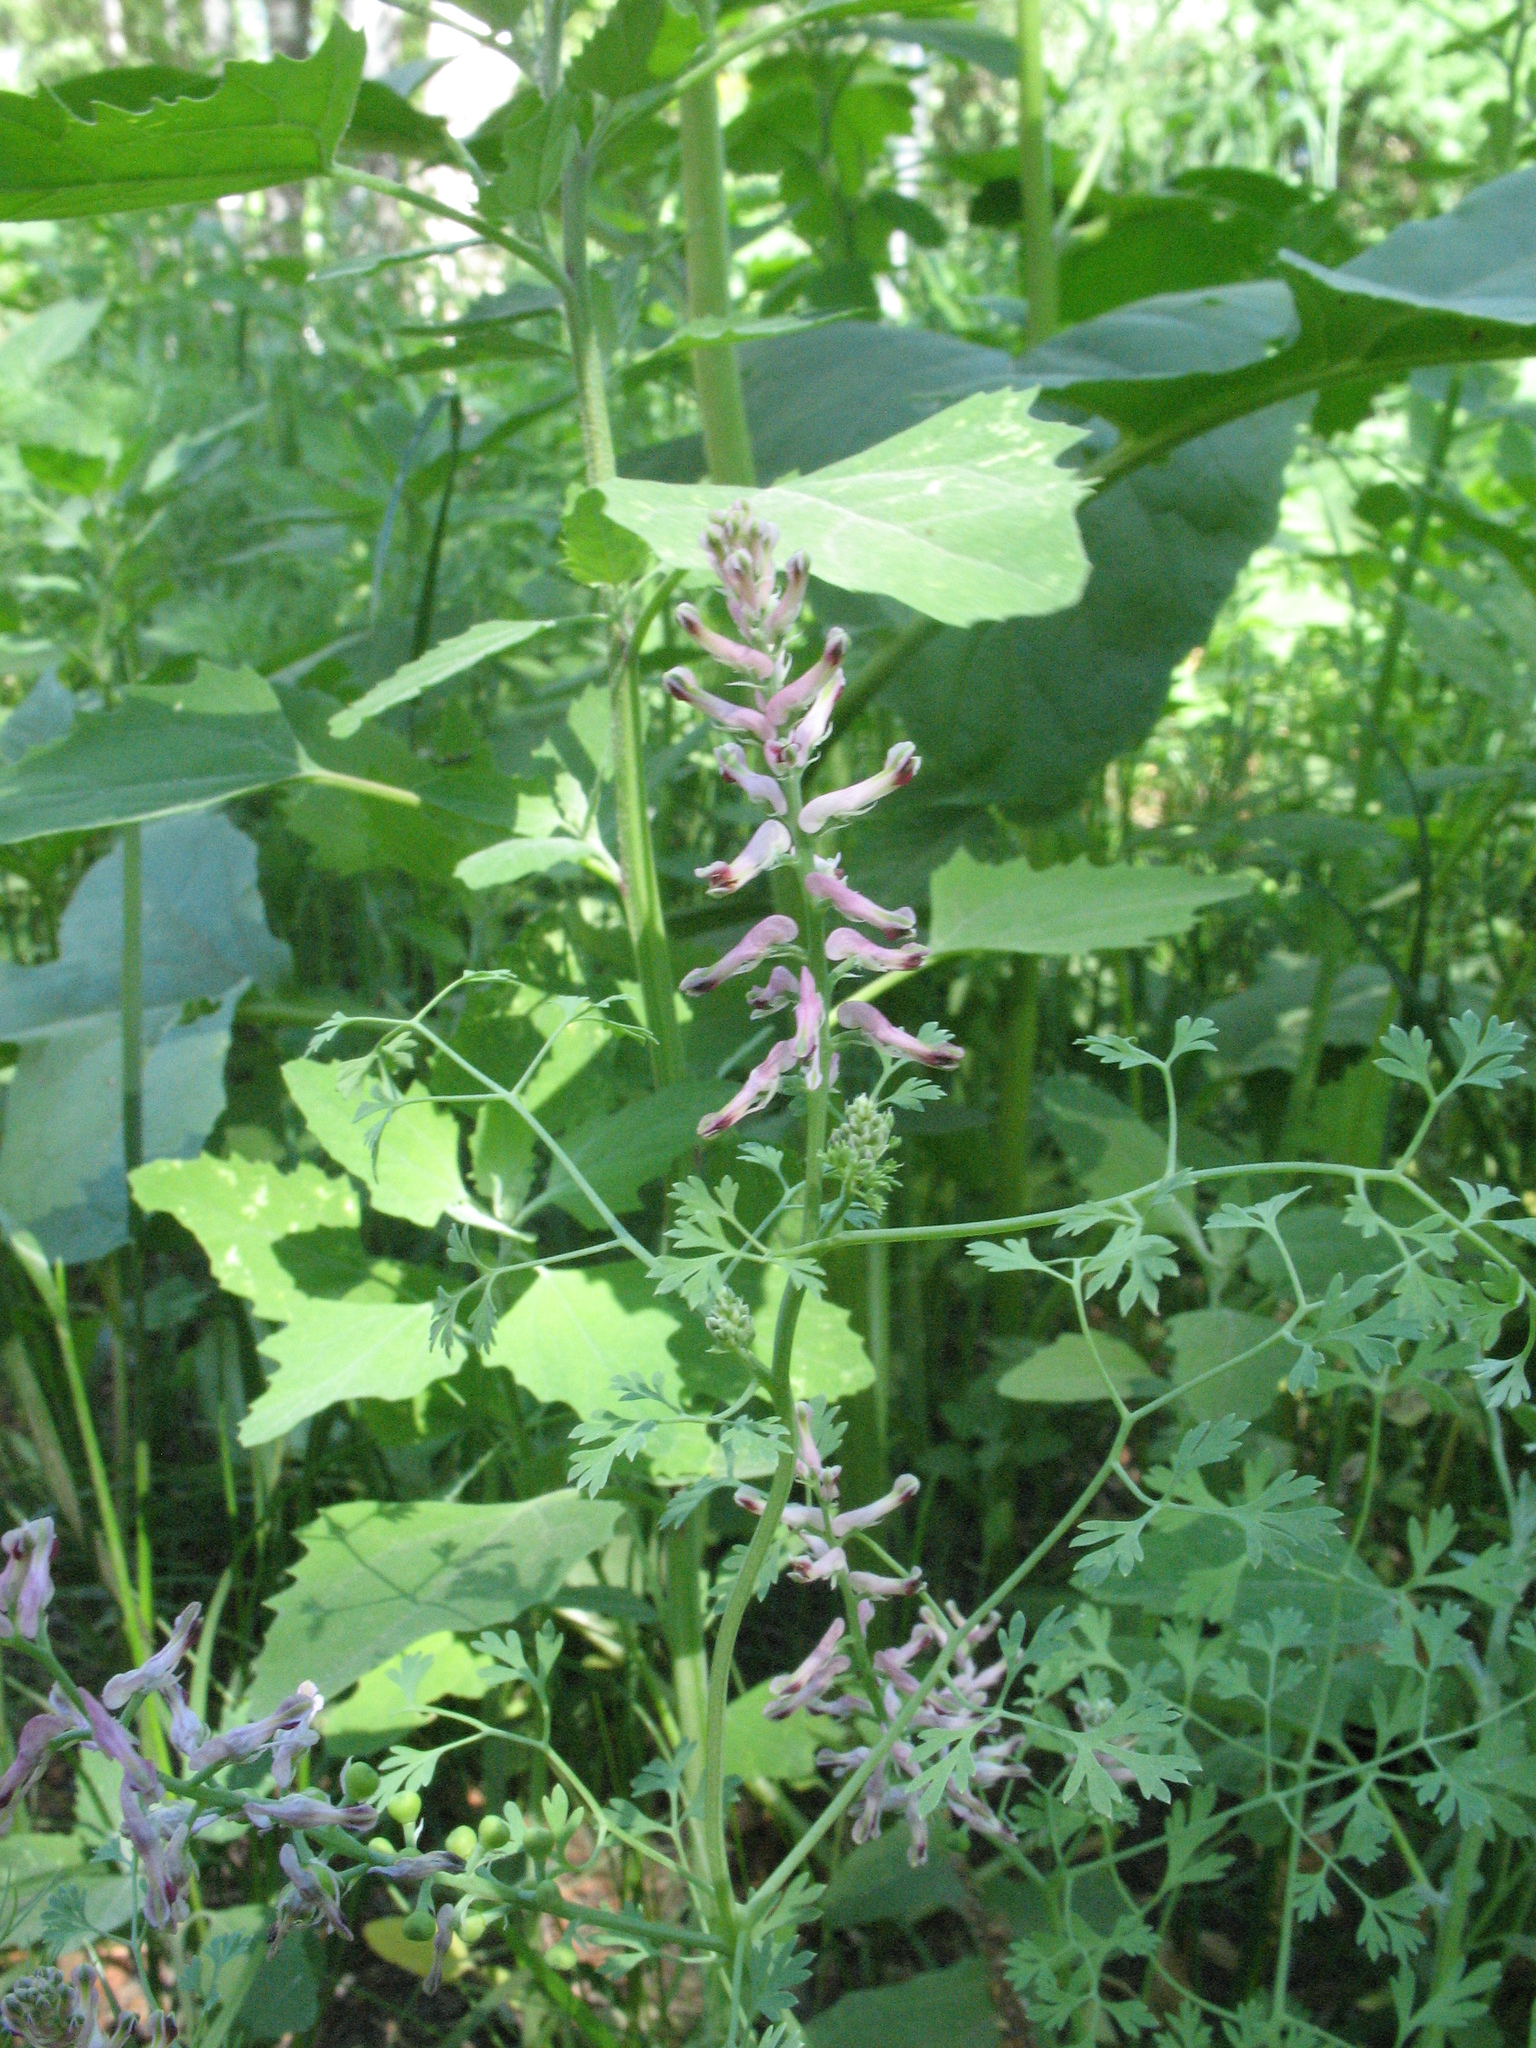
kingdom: Plantae
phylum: Tracheophyta
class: Magnoliopsida
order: Ranunculales
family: Papaveraceae
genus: Fumaria
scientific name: Fumaria officinalis
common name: Common fumitory
